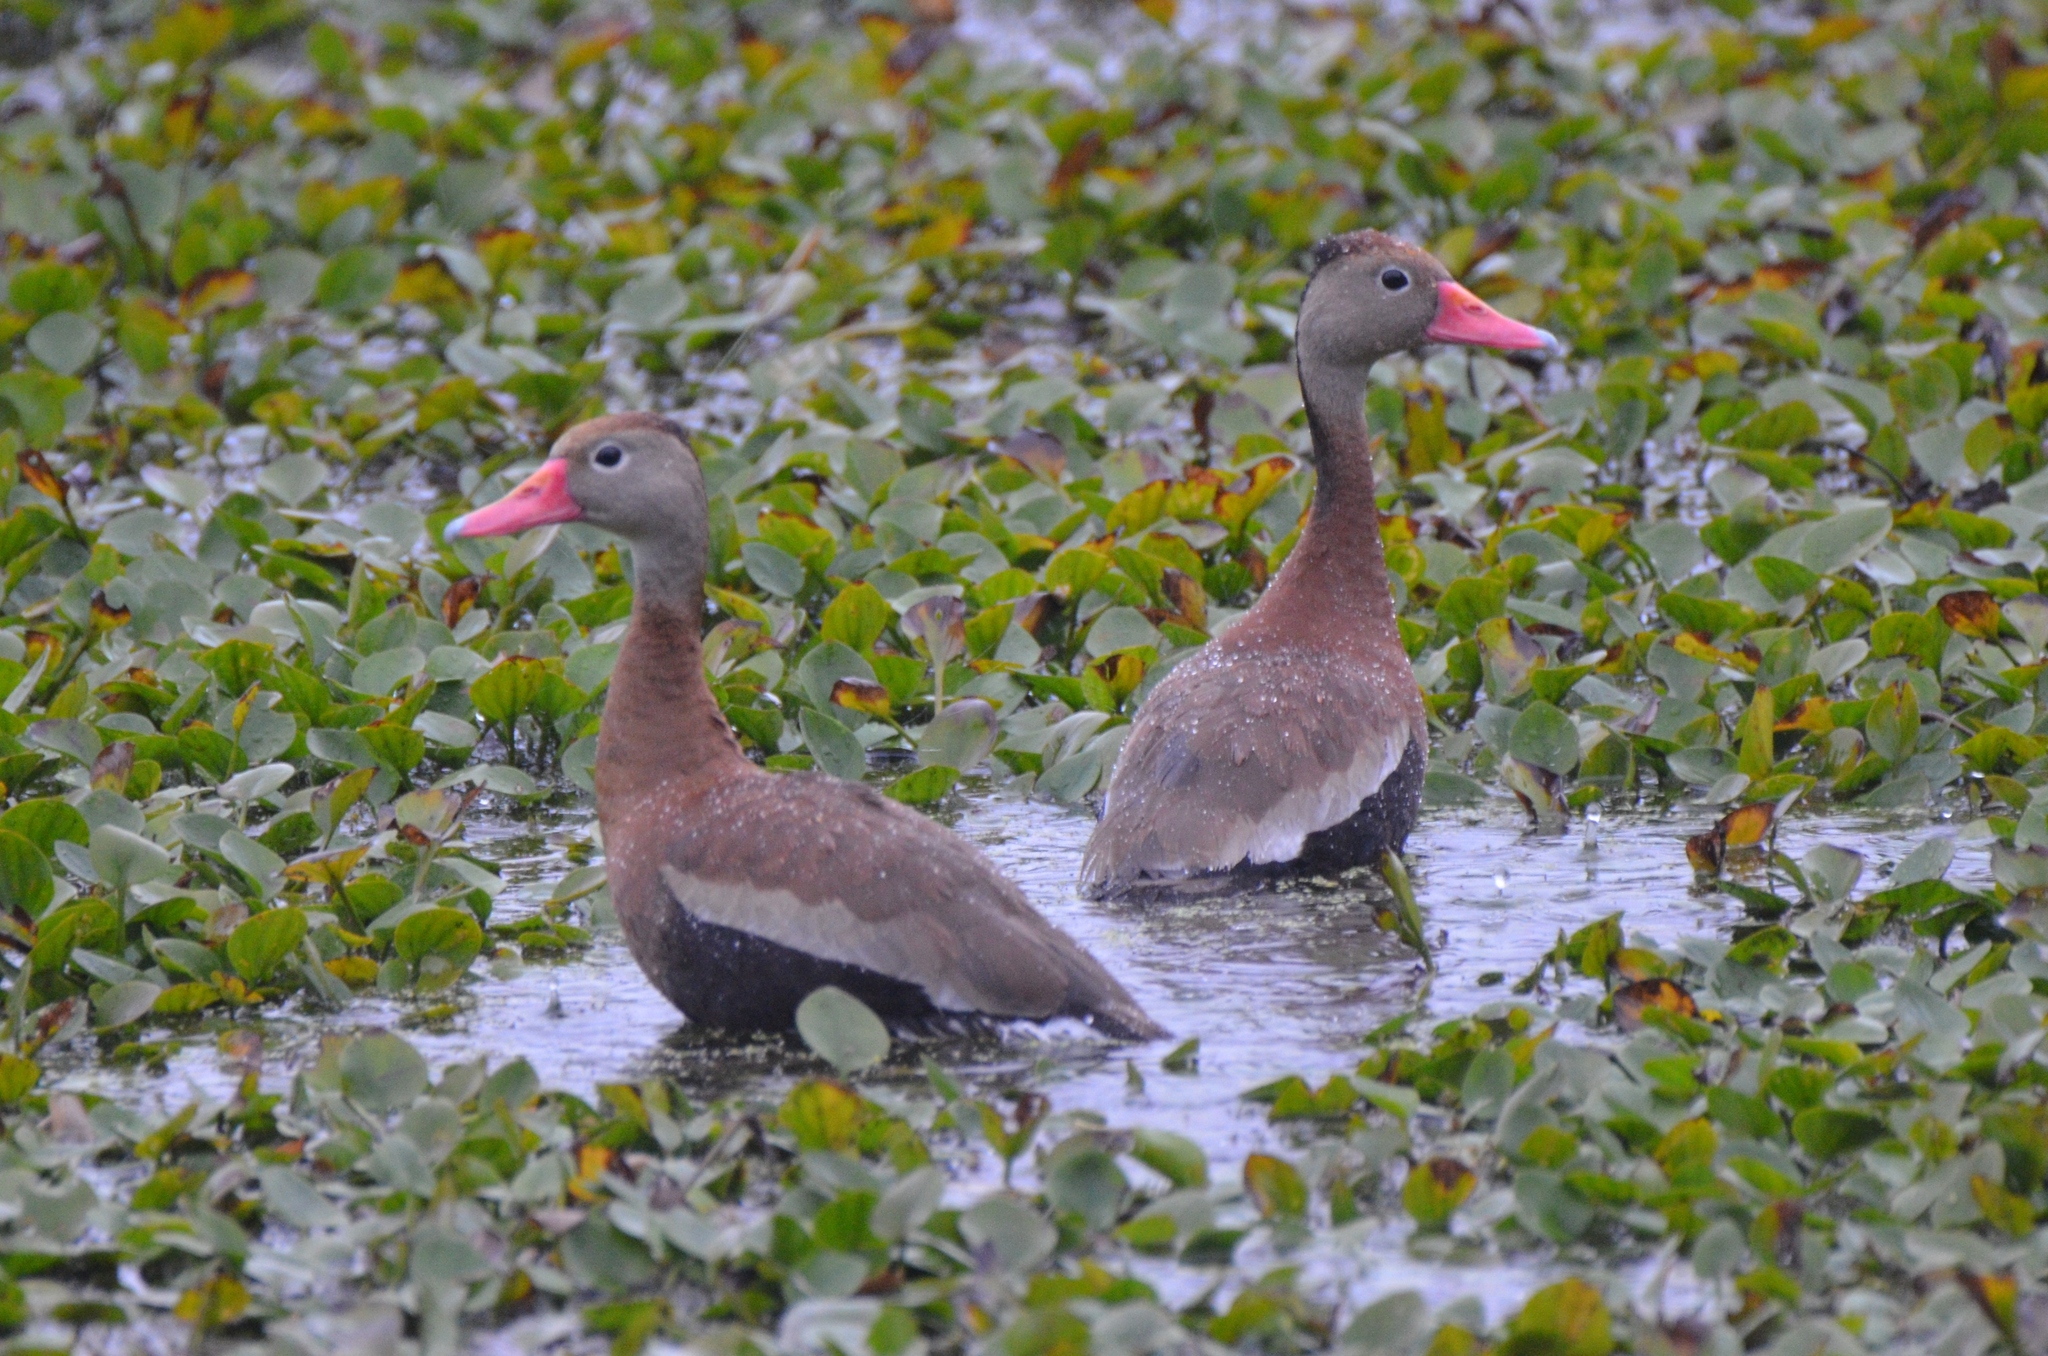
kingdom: Animalia
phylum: Chordata
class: Aves
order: Anseriformes
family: Anatidae
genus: Dendrocygna
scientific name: Dendrocygna autumnalis
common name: Black-bellied whistling duck
